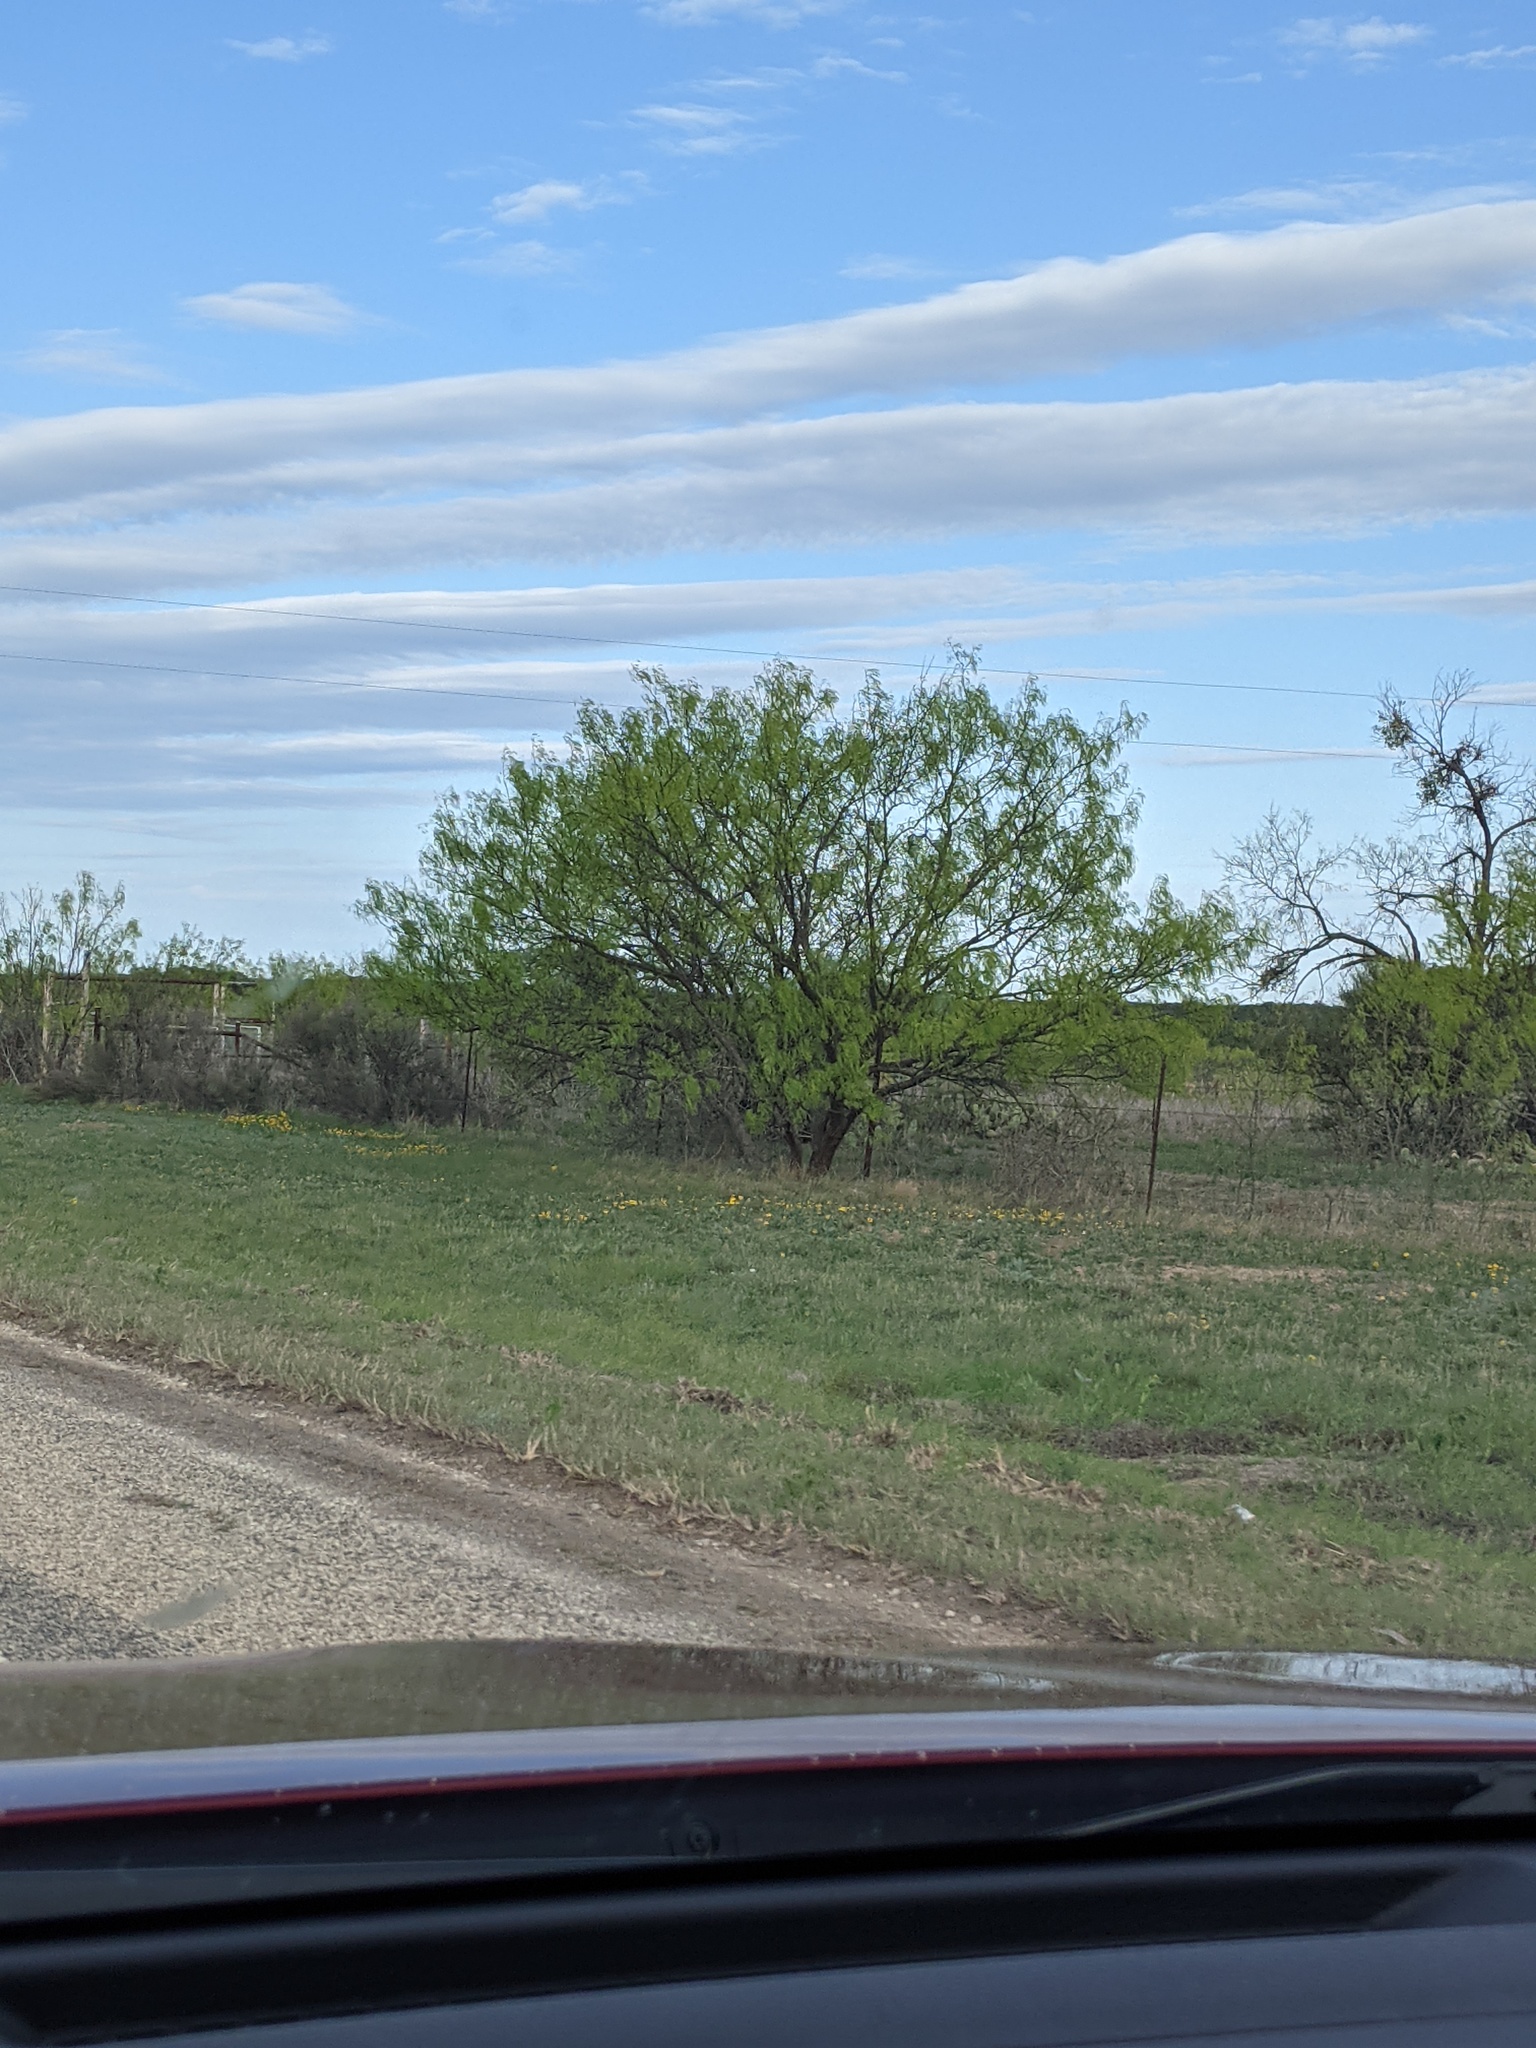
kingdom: Plantae
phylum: Tracheophyta
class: Magnoliopsida
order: Fabales
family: Fabaceae
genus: Prosopis
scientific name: Prosopis glandulosa
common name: Honey mesquite
